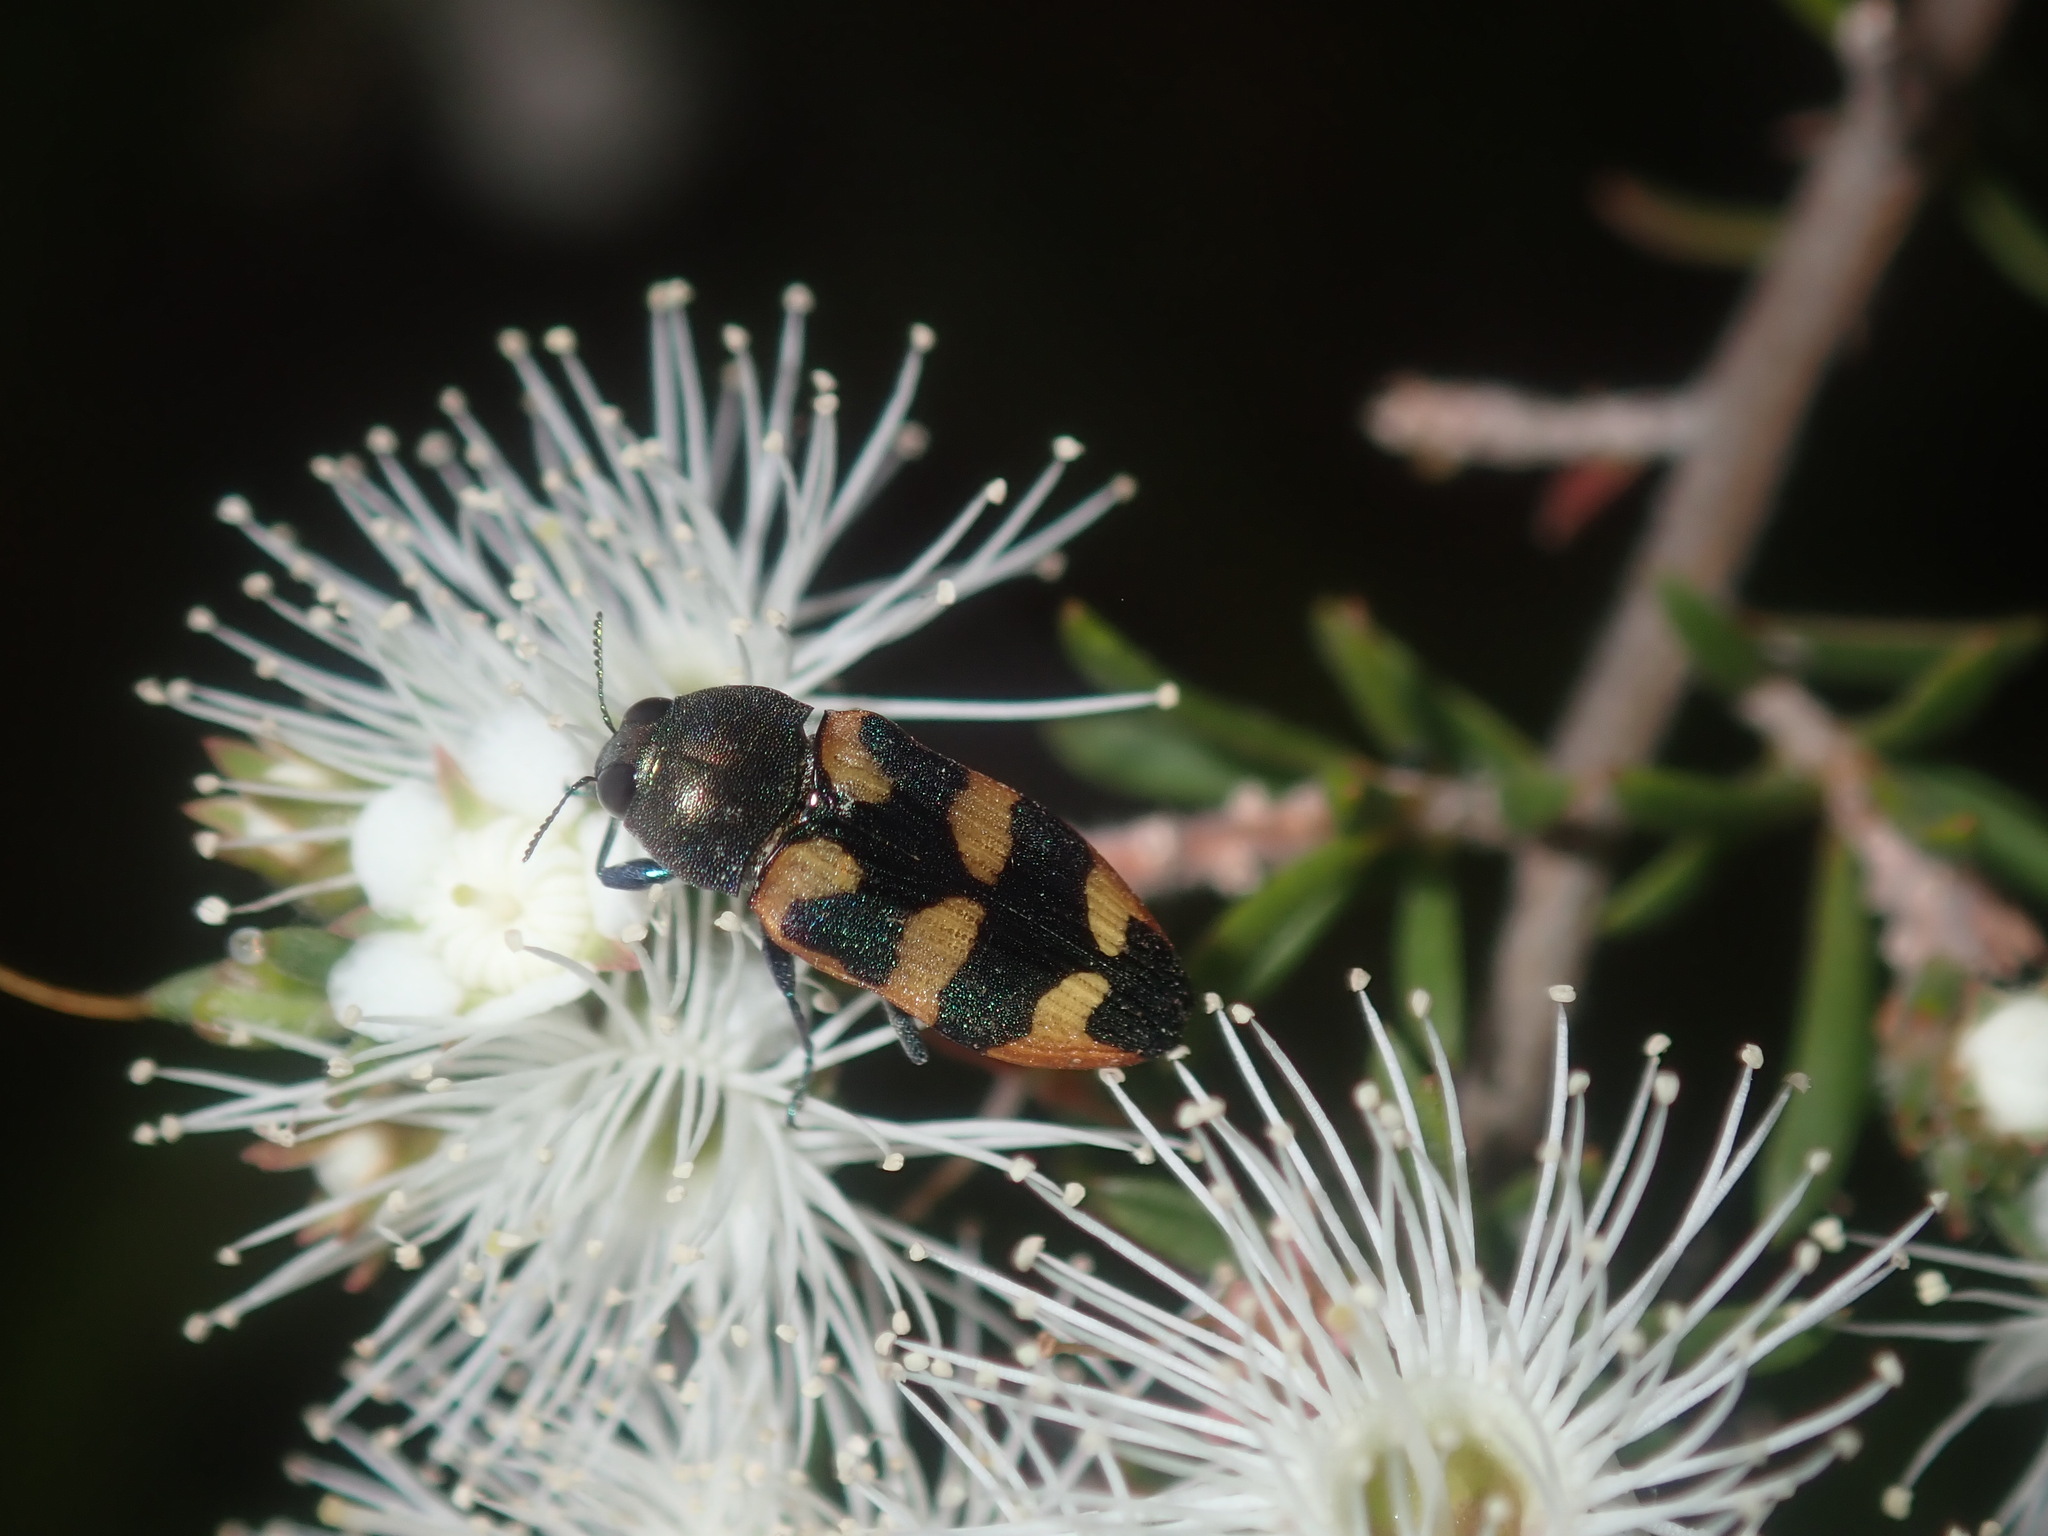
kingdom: Animalia
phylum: Arthropoda
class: Insecta
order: Coleoptera
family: Buprestidae
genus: Castiarina
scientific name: Castiarina sexplagiata
